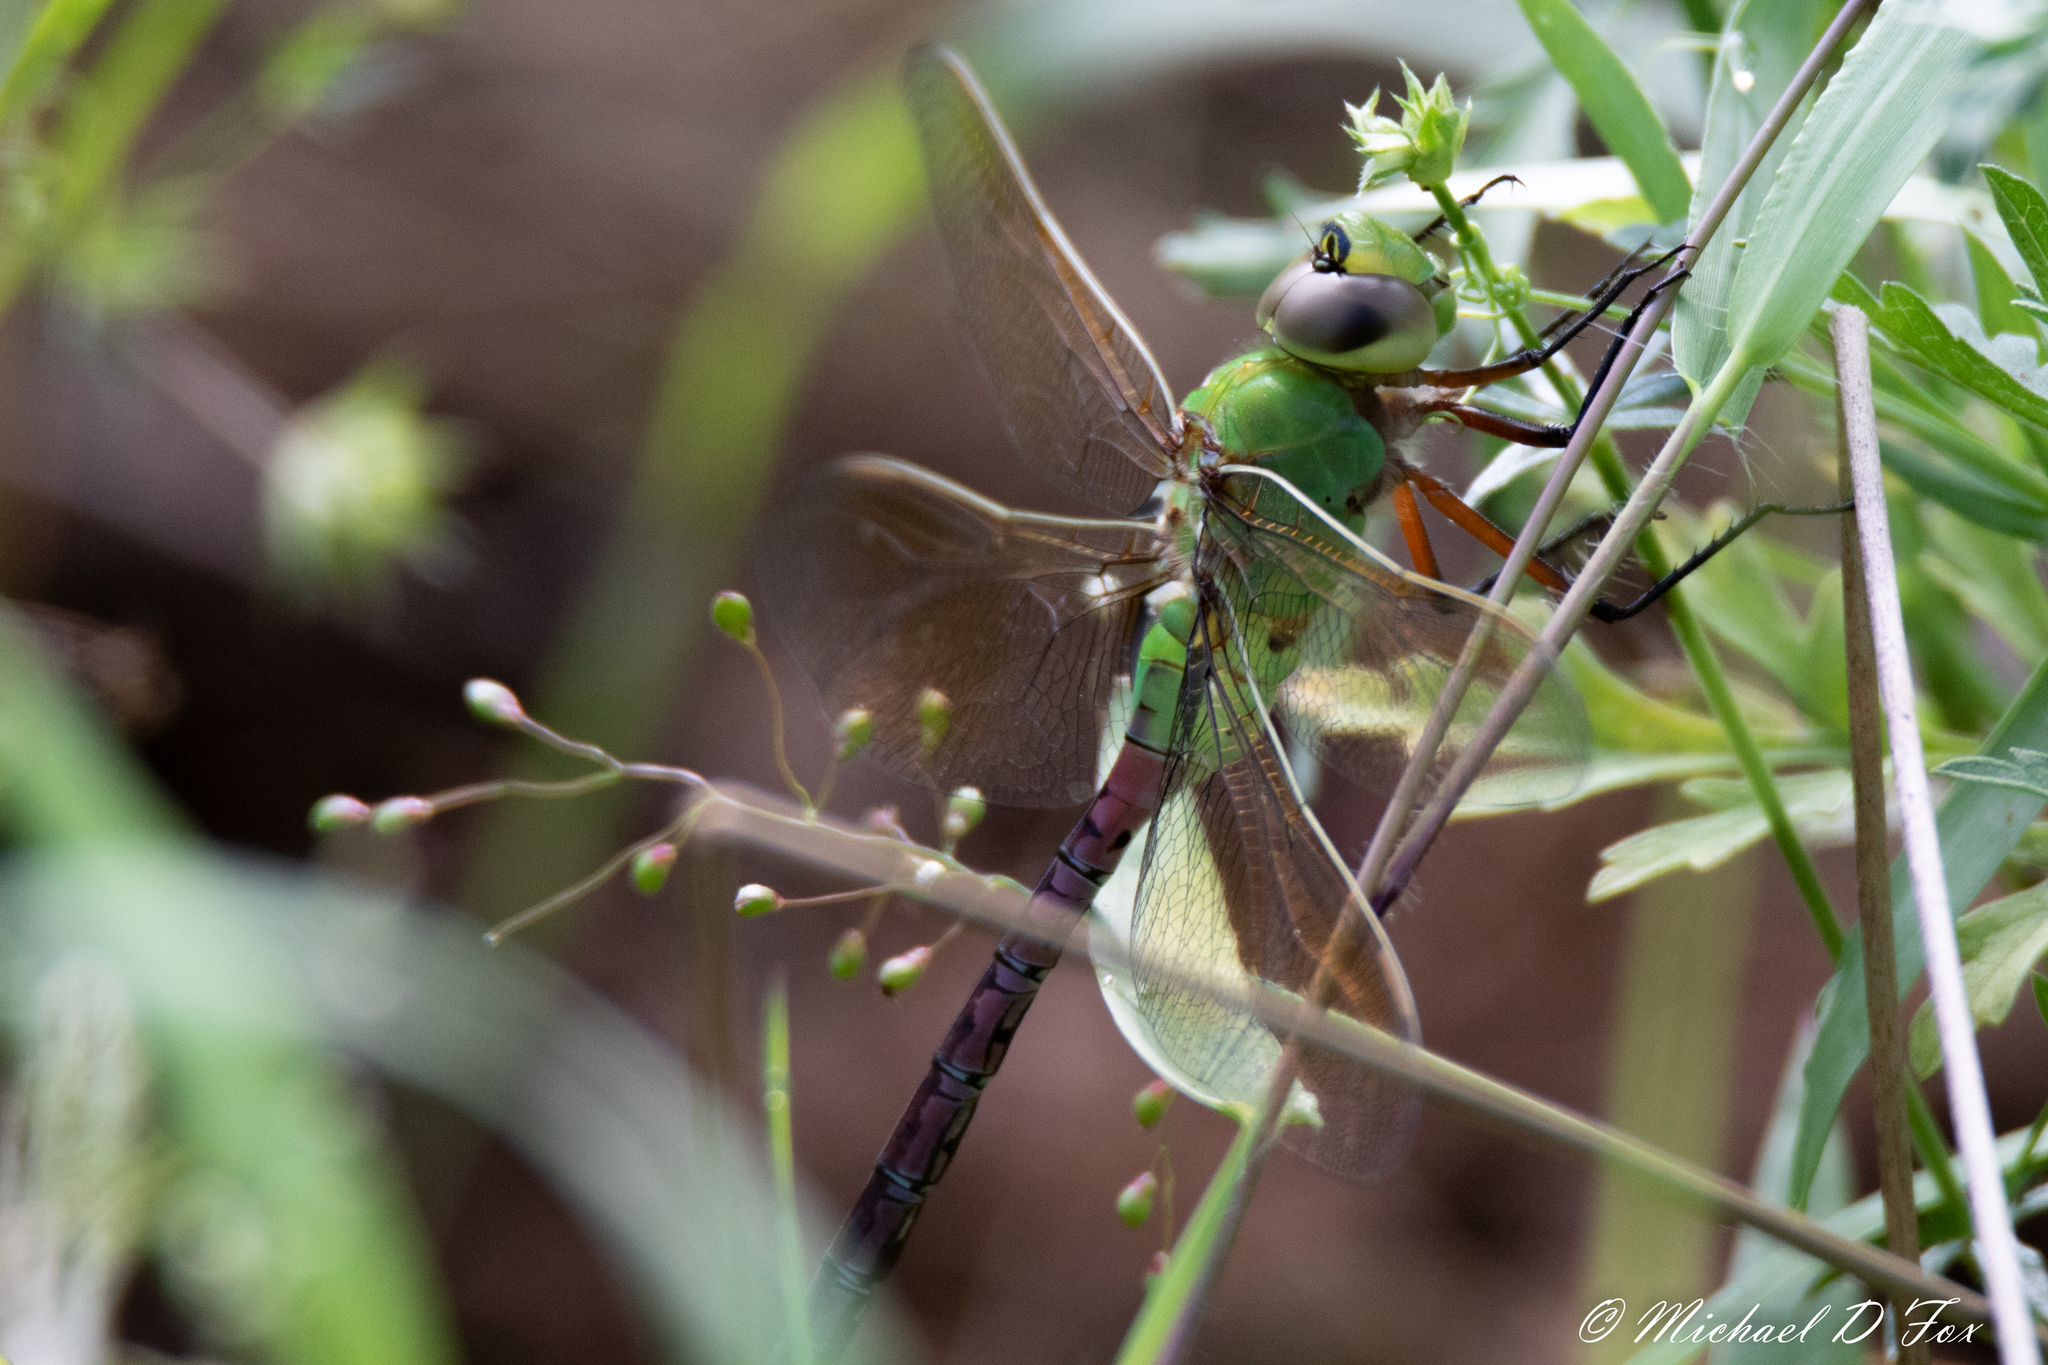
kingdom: Animalia
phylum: Arthropoda
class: Insecta
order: Odonata
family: Aeshnidae
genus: Anax
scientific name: Anax junius
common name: Common green darner
